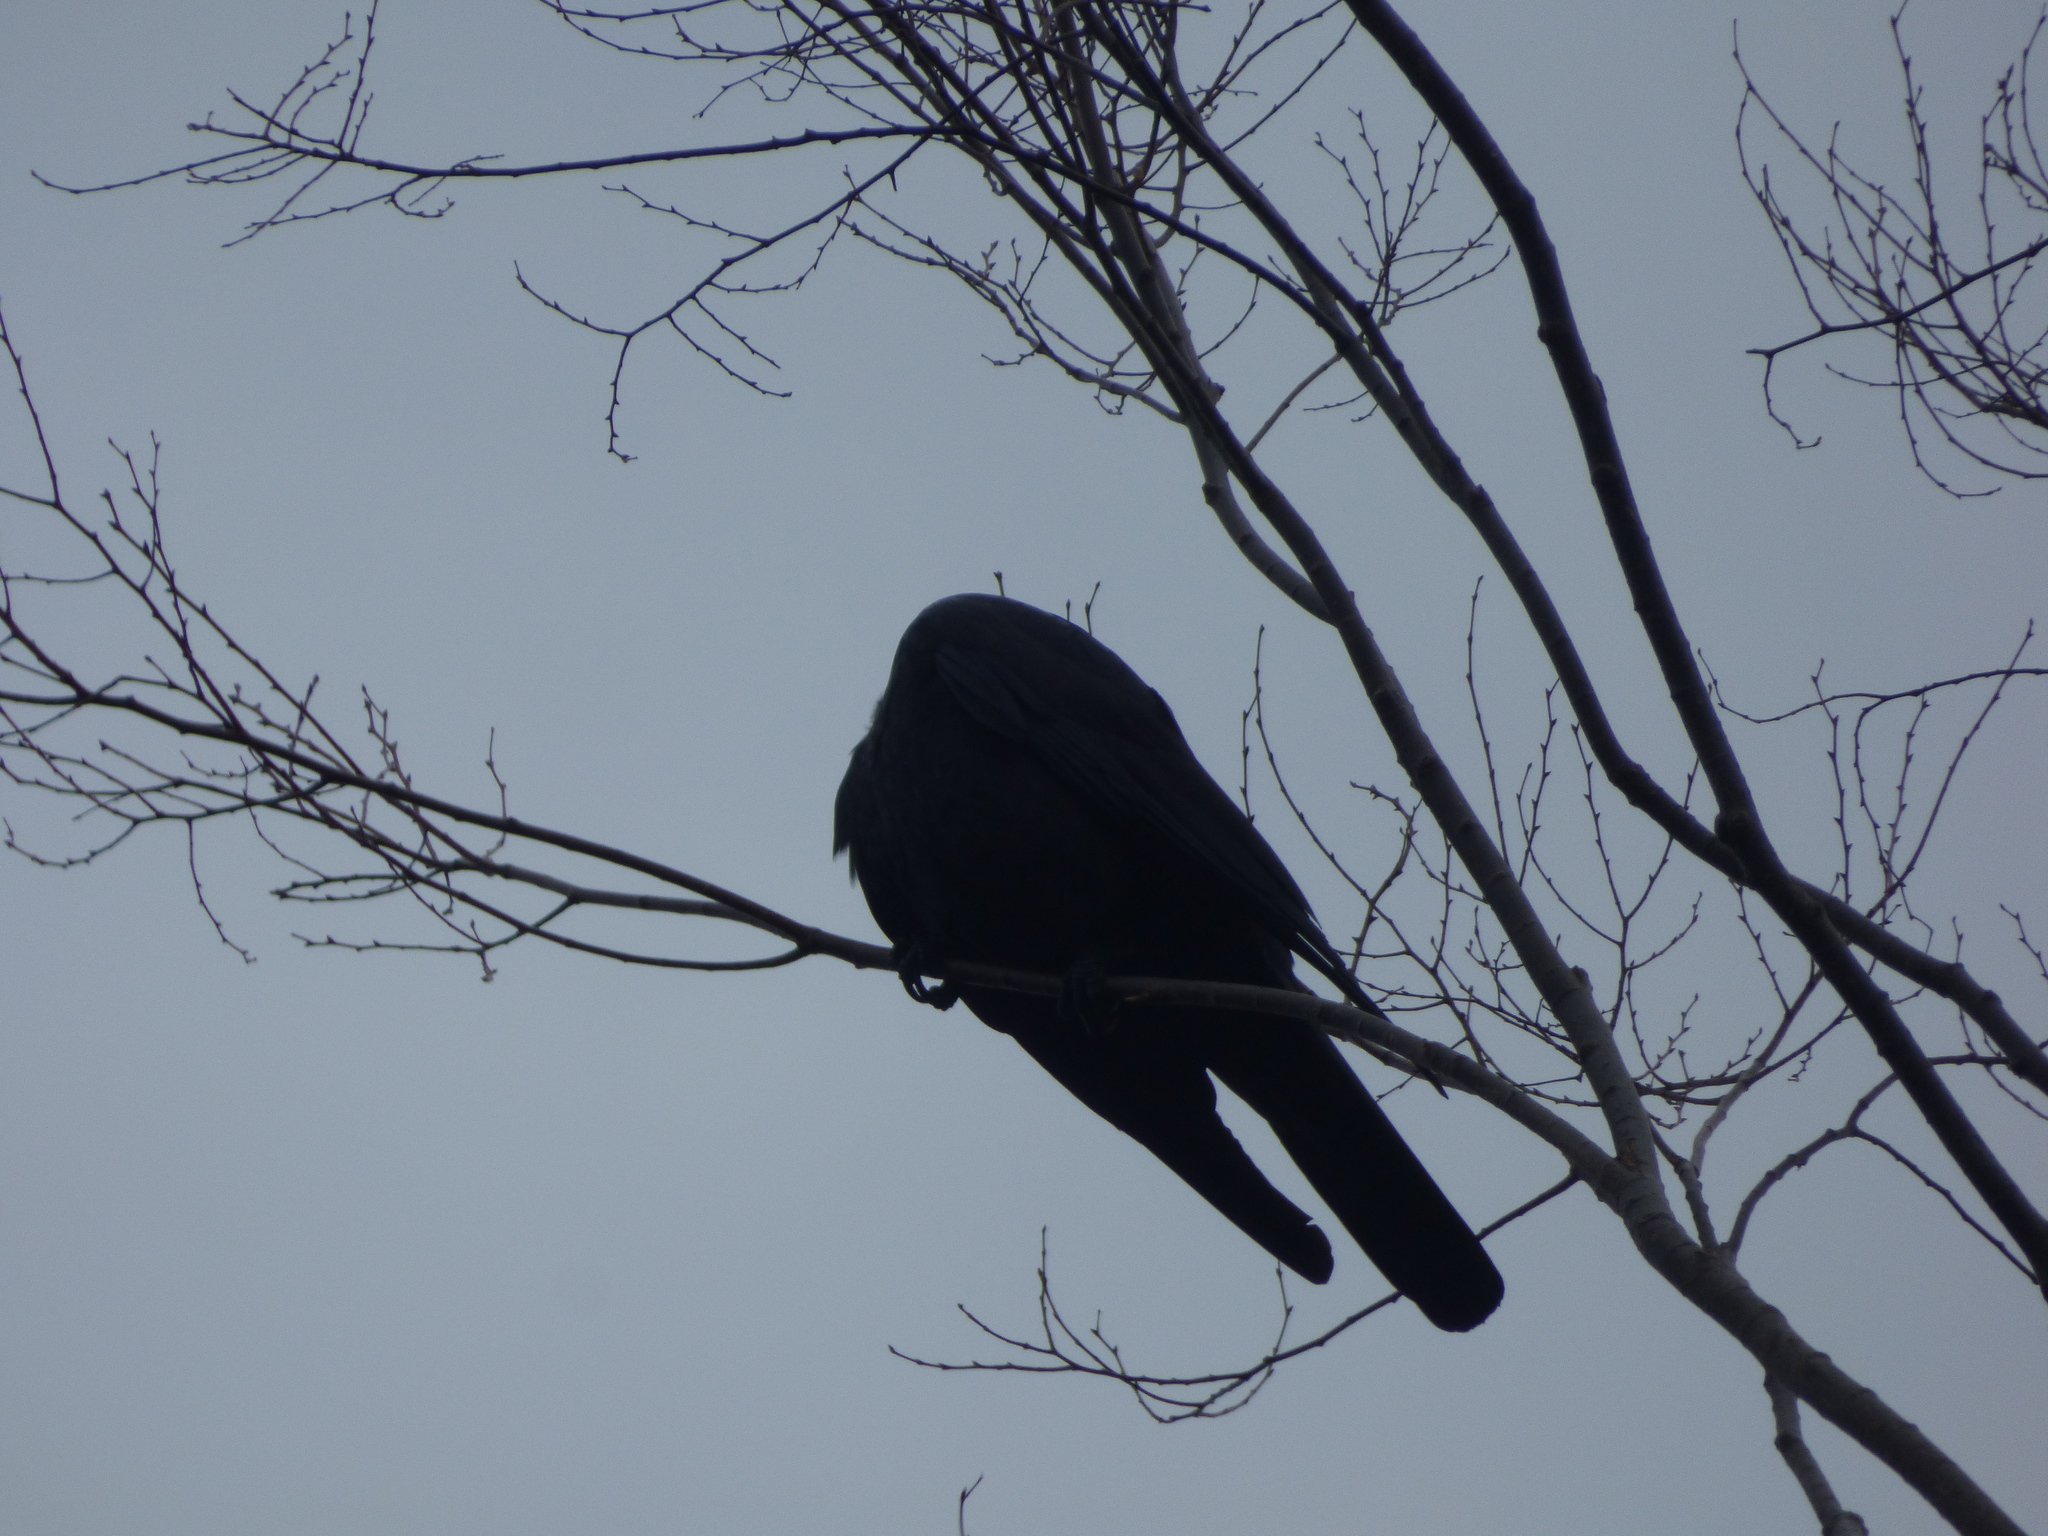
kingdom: Animalia
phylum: Chordata
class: Aves
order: Passeriformes
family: Corvidae
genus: Corvus
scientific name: Corvus macrorhynchos
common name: Large-billed crow
